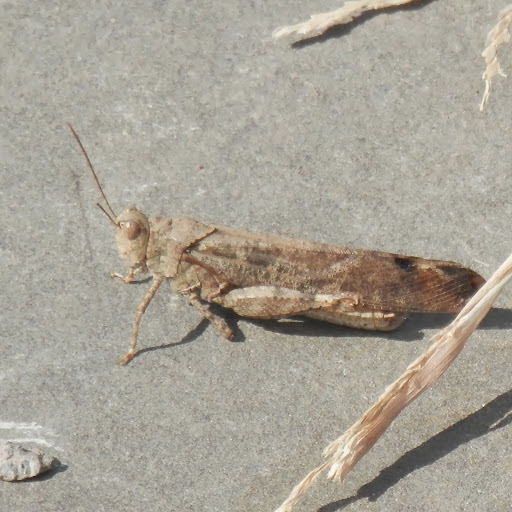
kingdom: Animalia
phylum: Arthropoda
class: Insecta
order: Orthoptera
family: Acrididae
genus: Dissosteira
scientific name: Dissosteira carolina
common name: Carolina grasshopper
